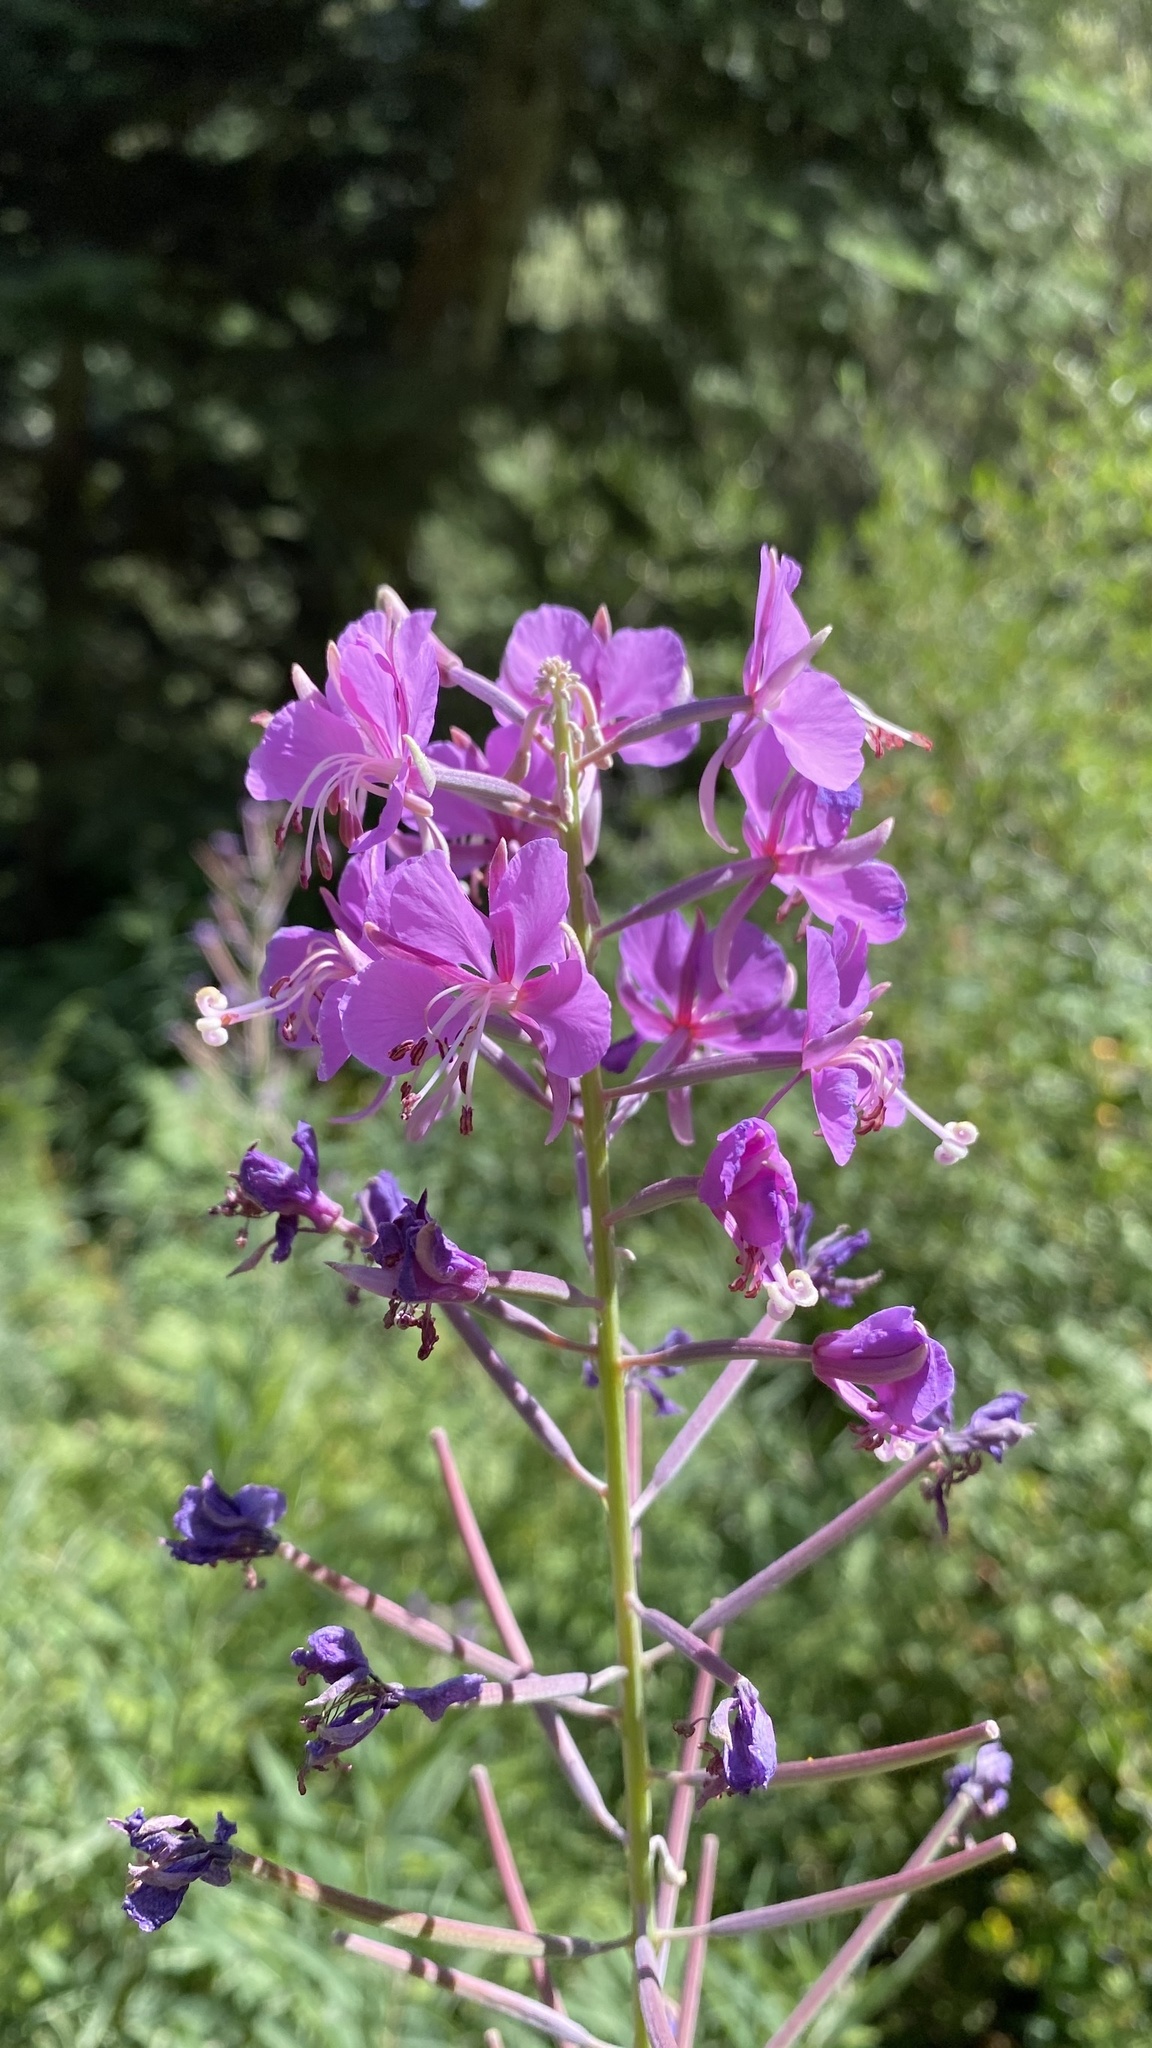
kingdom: Plantae
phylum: Tracheophyta
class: Magnoliopsida
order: Myrtales
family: Onagraceae
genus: Chamaenerion
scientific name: Chamaenerion angustifolium
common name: Fireweed
